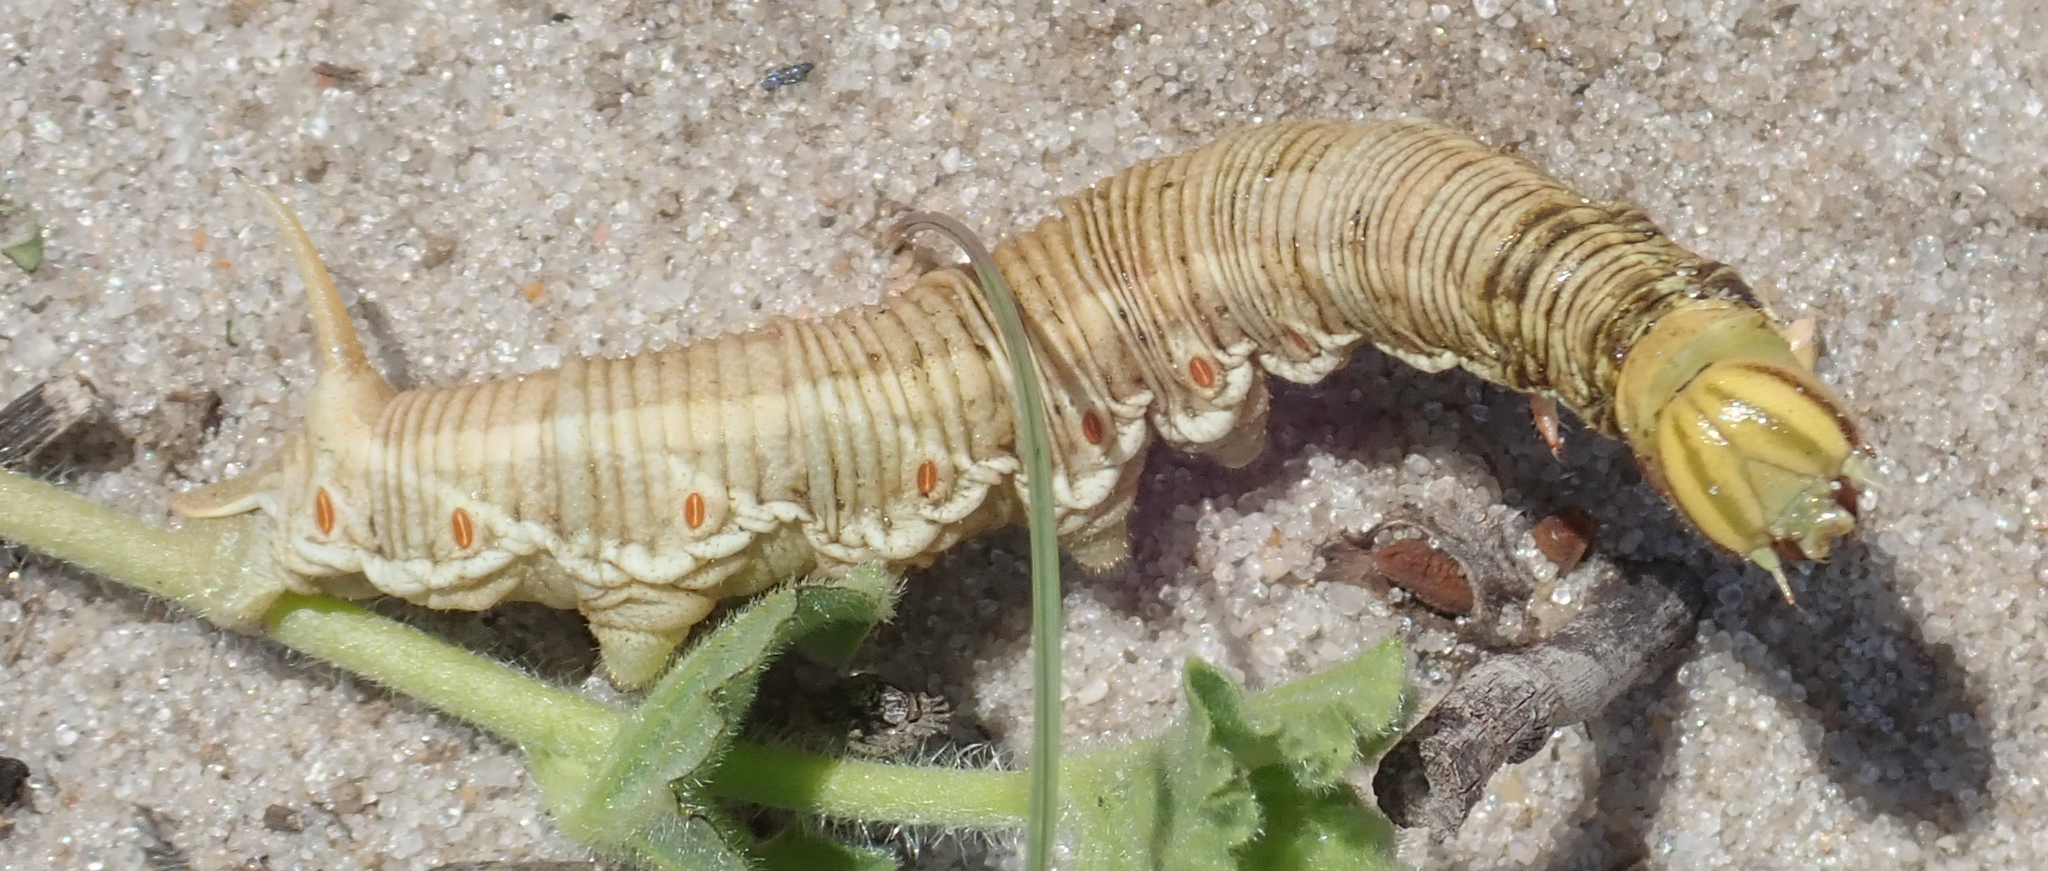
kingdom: Animalia
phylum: Arthropoda
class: Insecta
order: Lepidoptera
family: Sphingidae
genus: Agrius
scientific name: Agrius convolvuli
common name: Convolvulus hawkmoth
